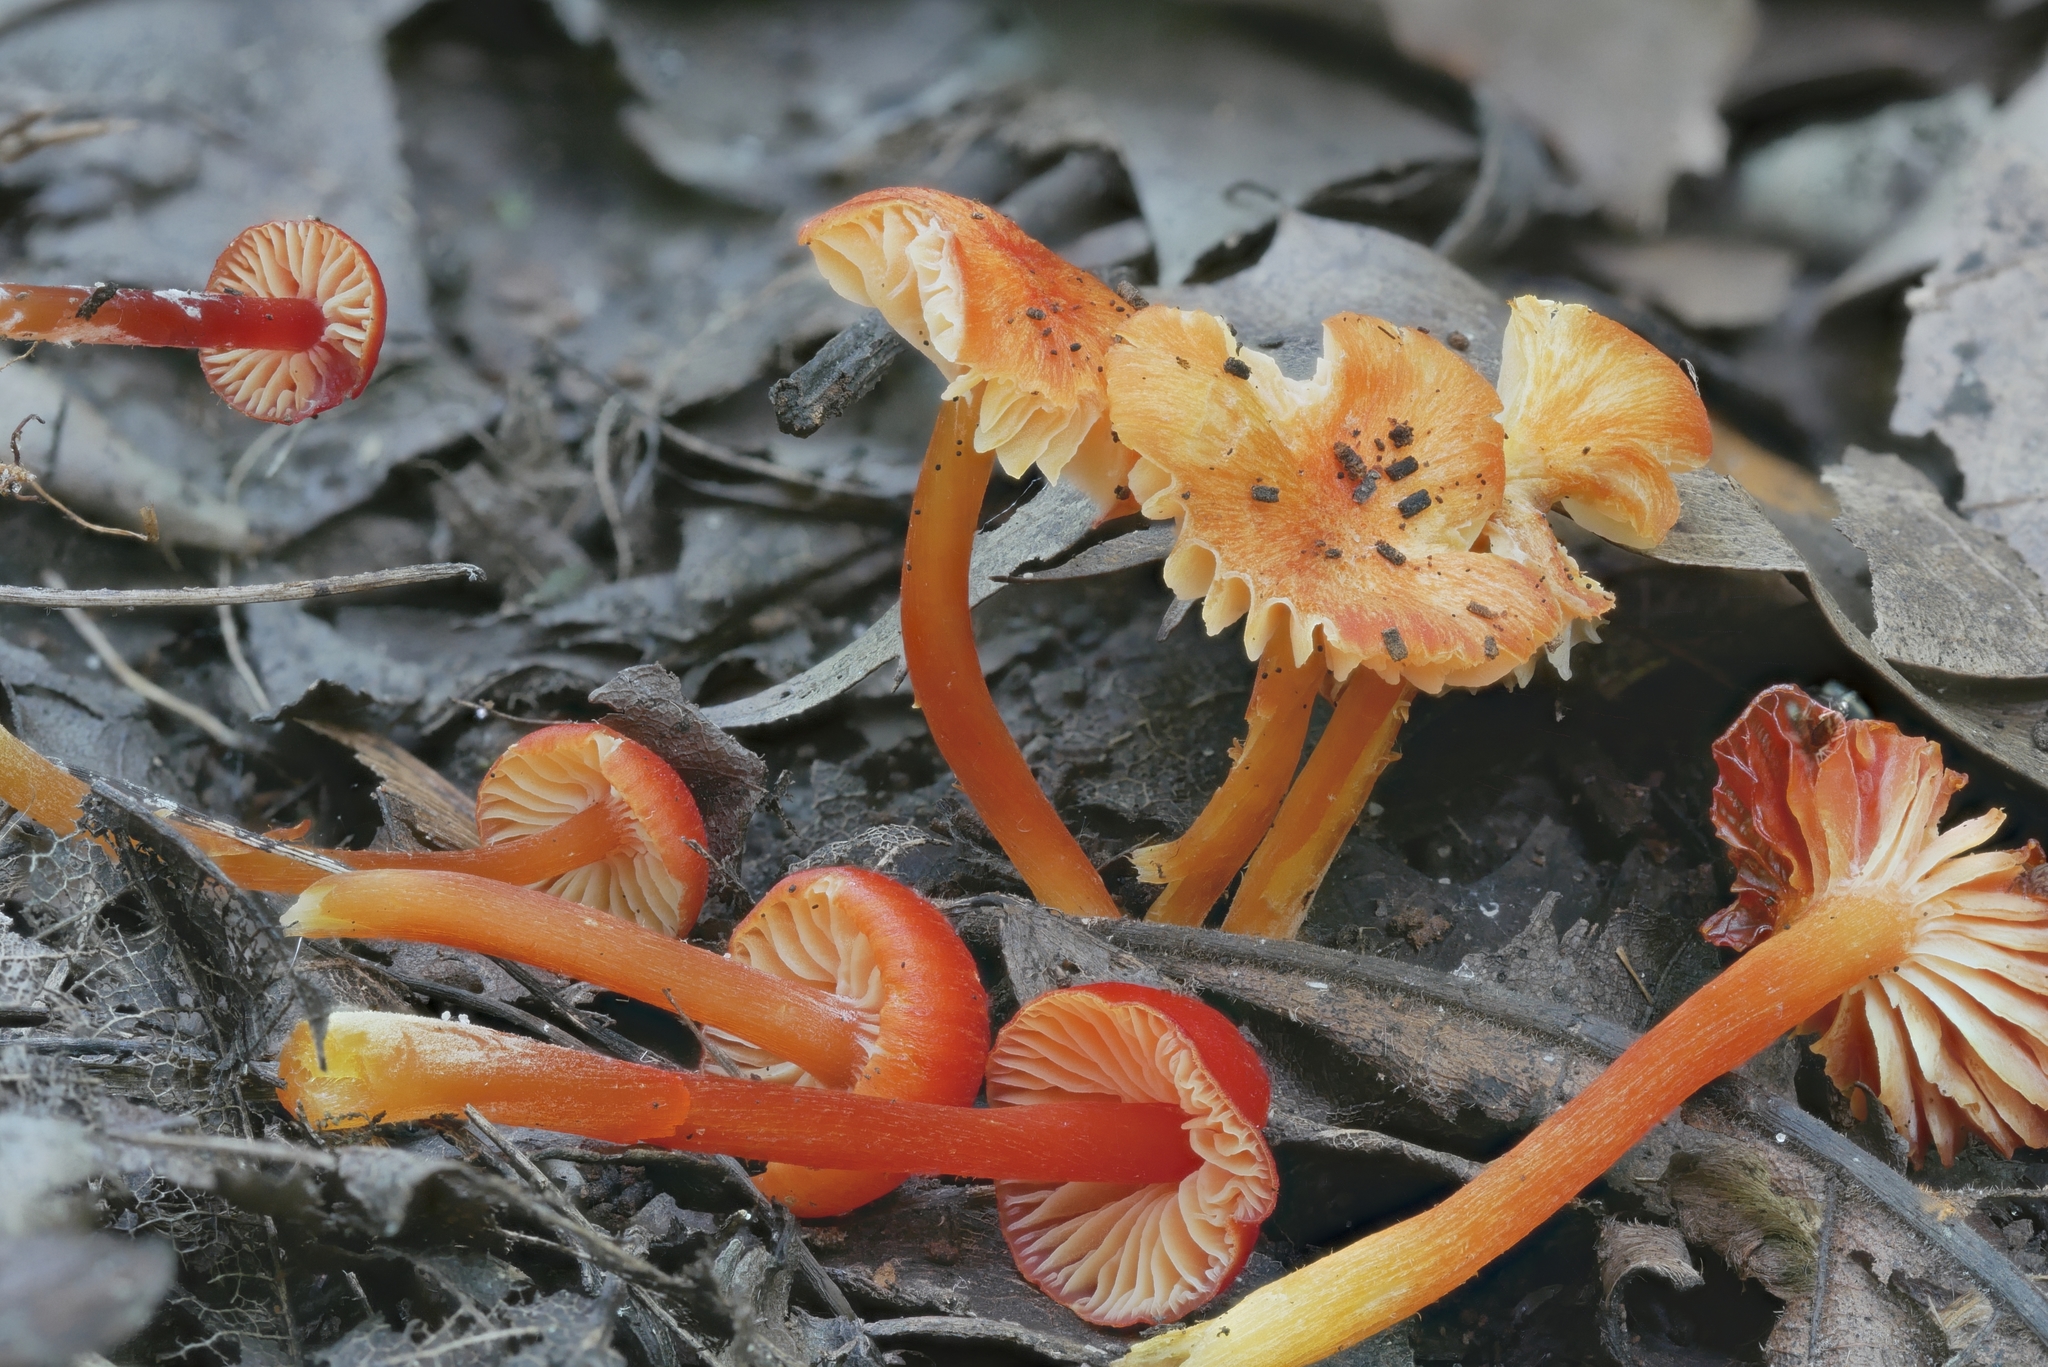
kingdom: Fungi
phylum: Basidiomycota
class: Agaricomycetes
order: Agaricales
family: Hygrophoraceae
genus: Hygrocybe
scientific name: Hygrocybe minutula
